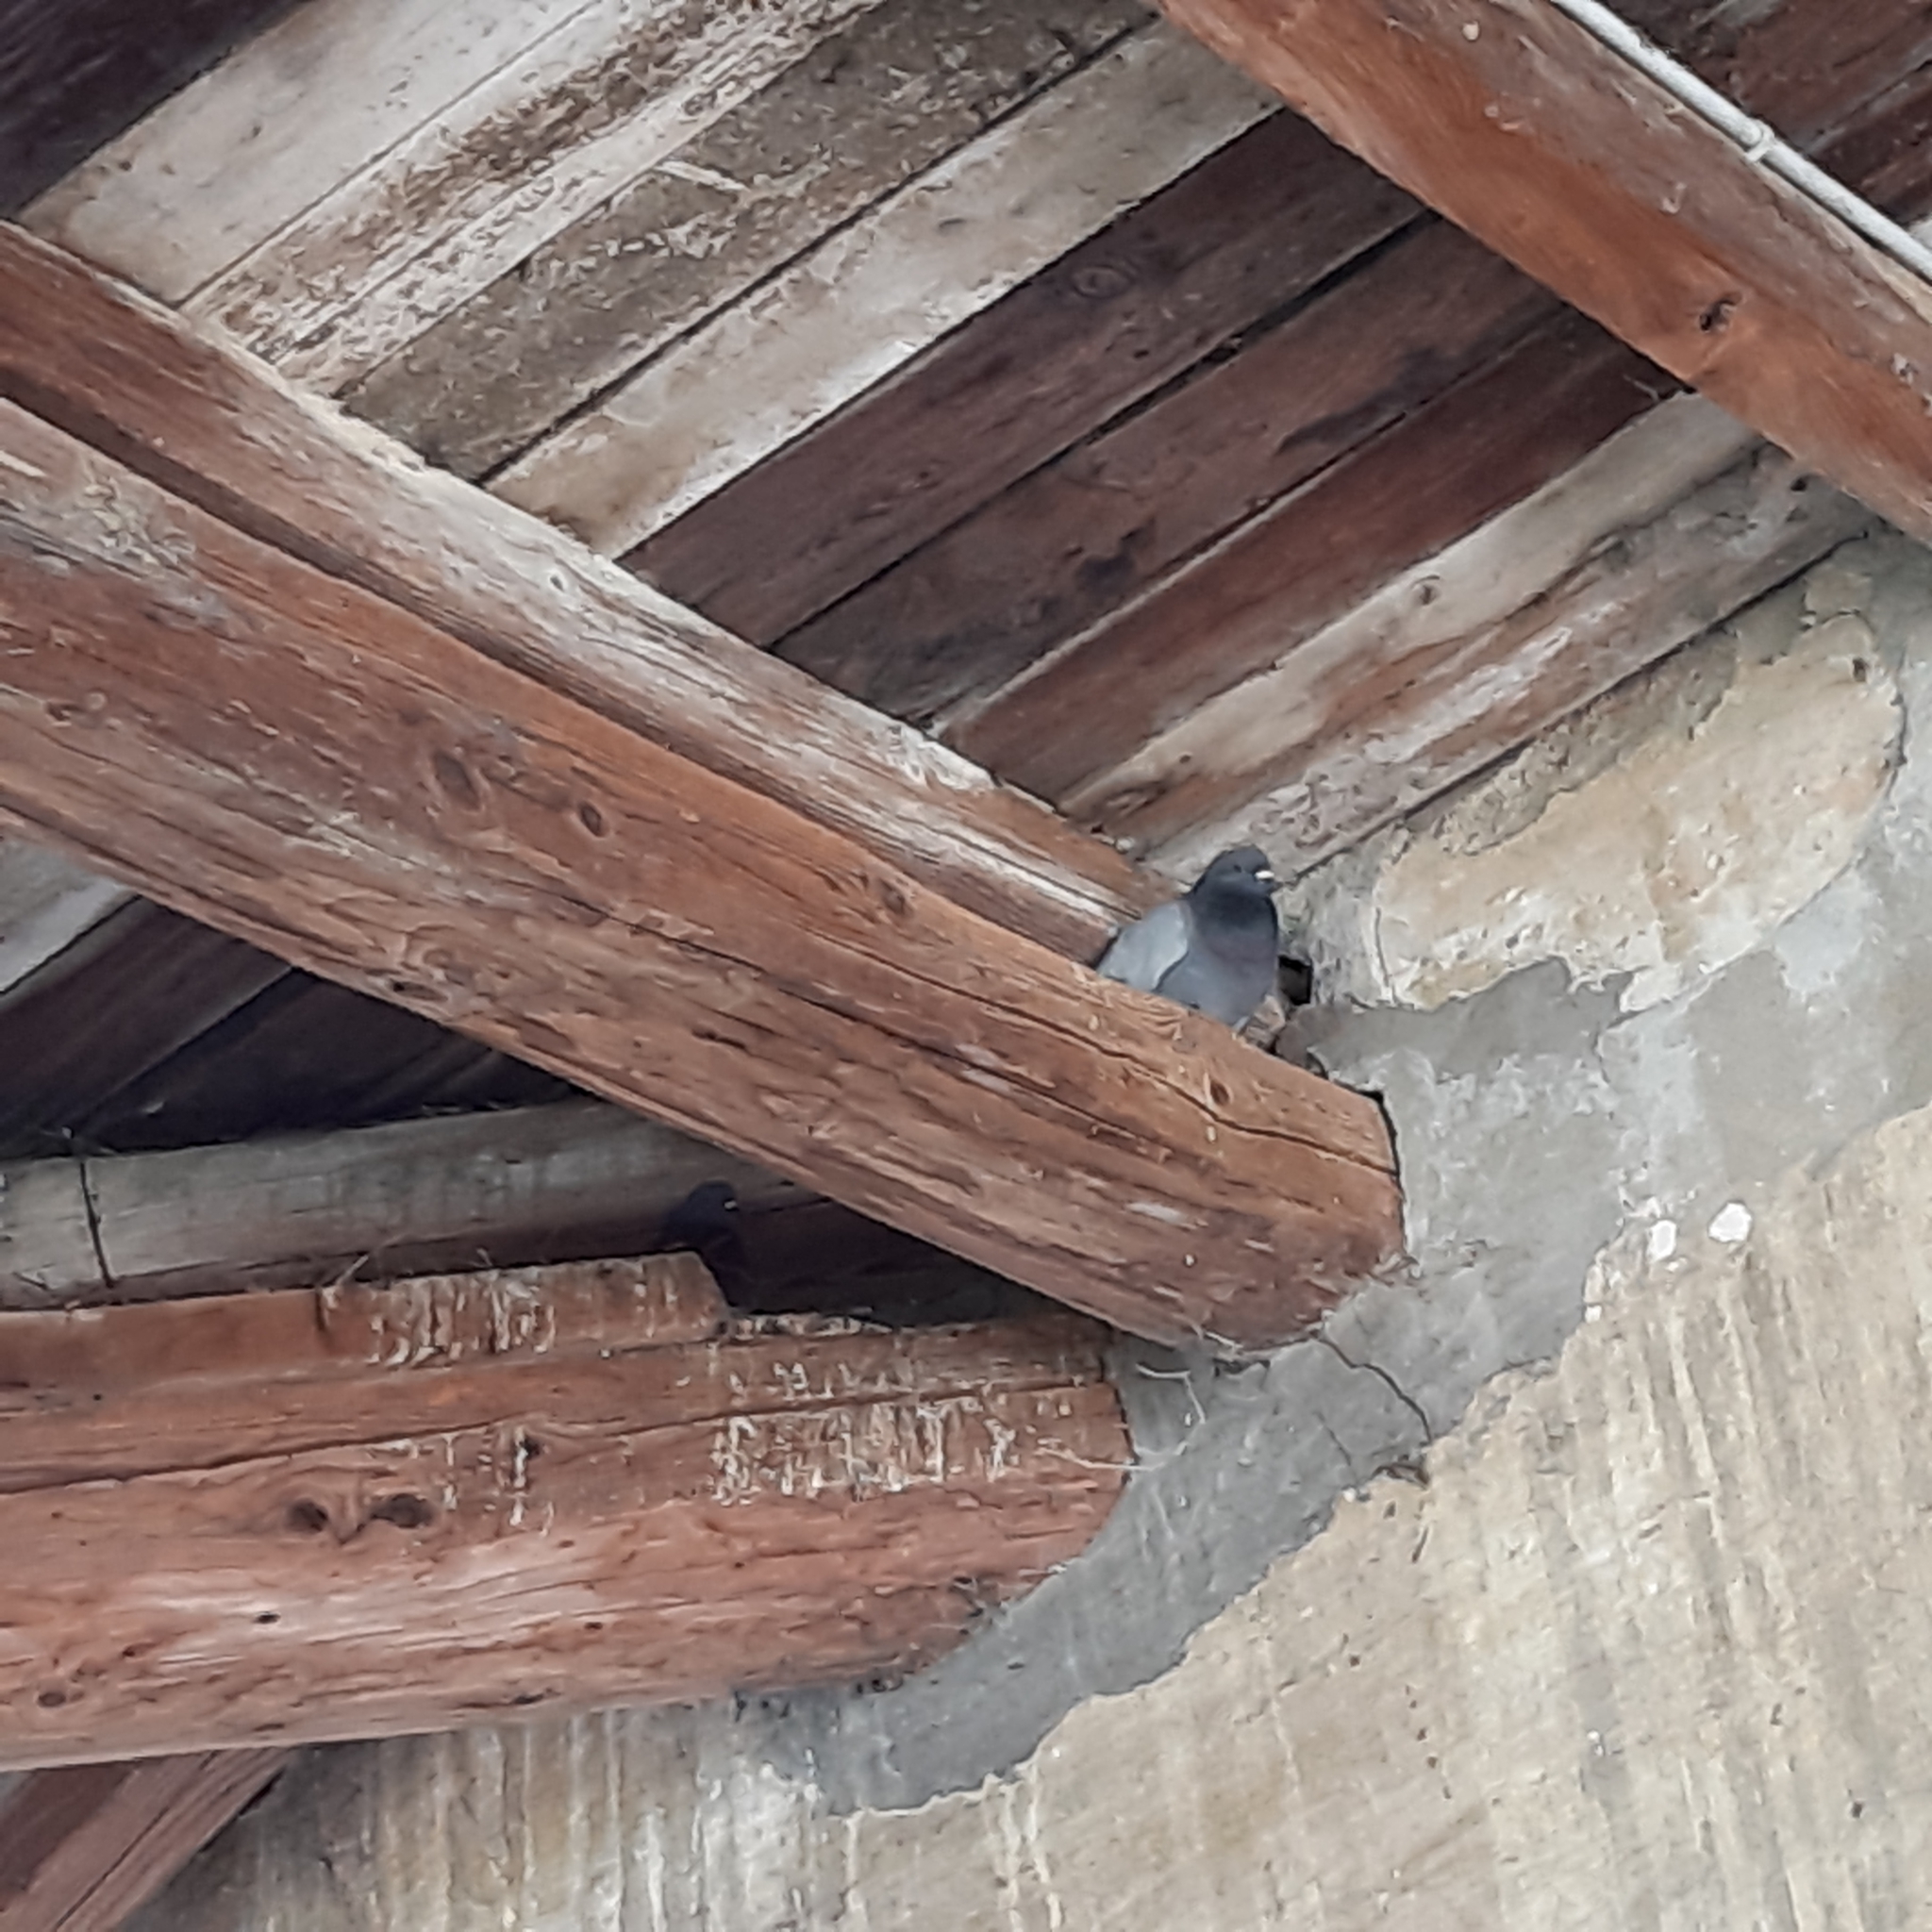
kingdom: Animalia
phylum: Chordata
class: Aves
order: Columbiformes
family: Columbidae
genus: Columba
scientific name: Columba livia
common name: Rock pigeon
